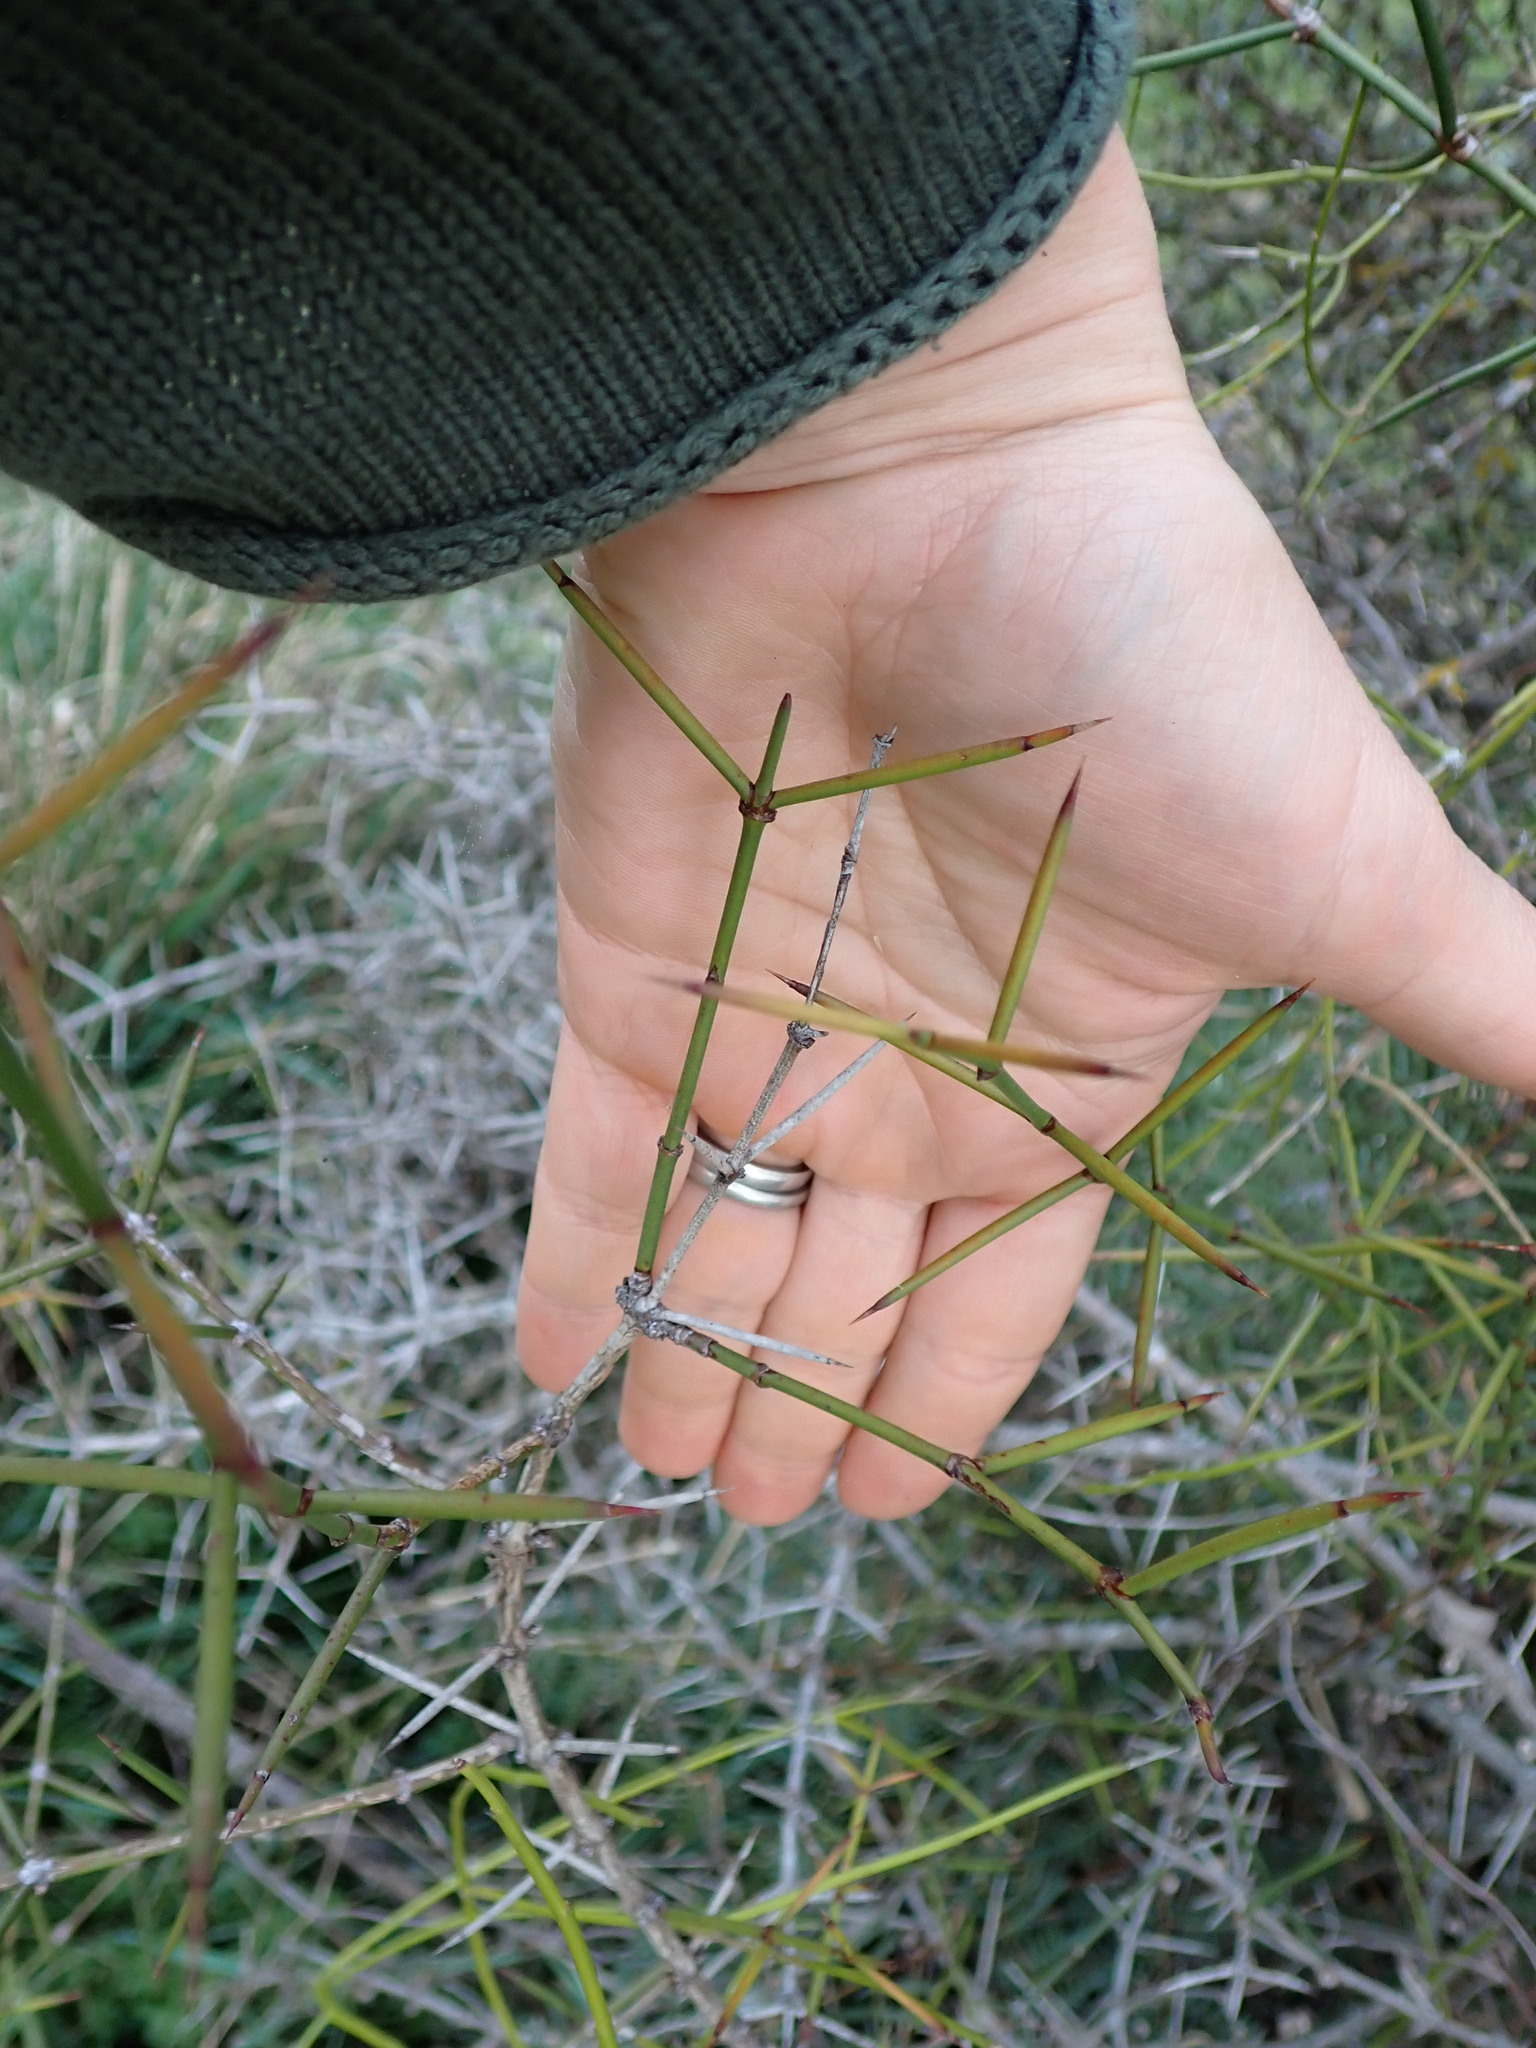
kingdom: Plantae
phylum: Tracheophyta
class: Magnoliopsida
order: Rosales
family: Rhamnaceae
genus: Discaria
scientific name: Discaria toumatou
